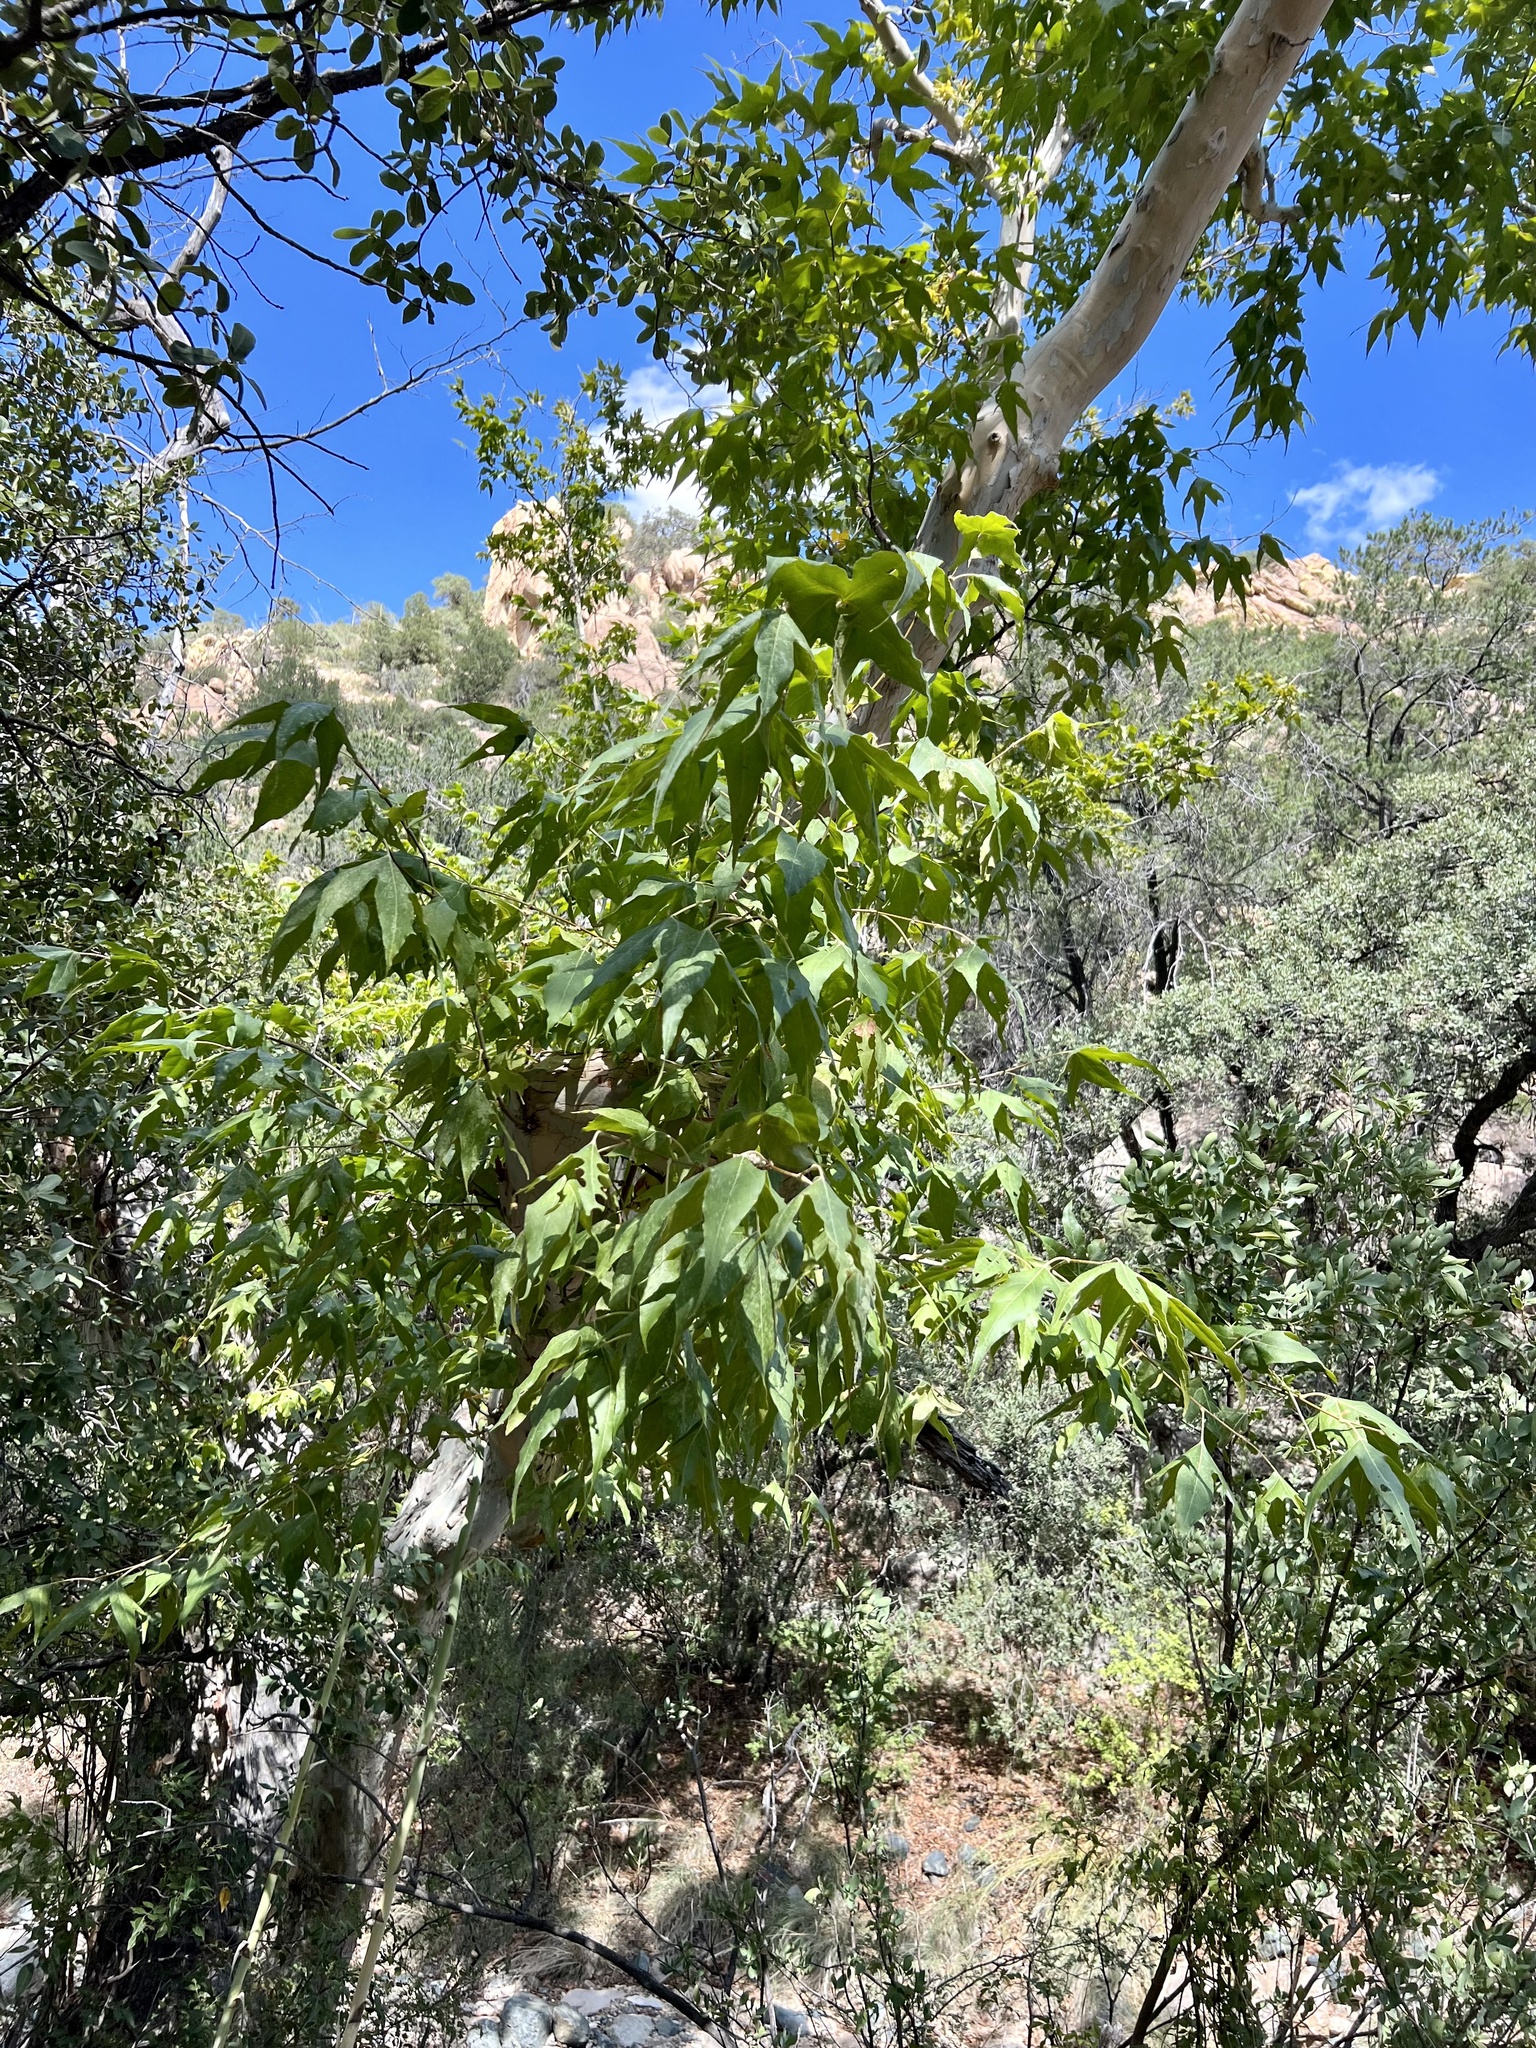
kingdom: Plantae
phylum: Tracheophyta
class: Magnoliopsida
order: Proteales
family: Platanaceae
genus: Platanus
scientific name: Platanus wrightii
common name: Arizona sycamore
